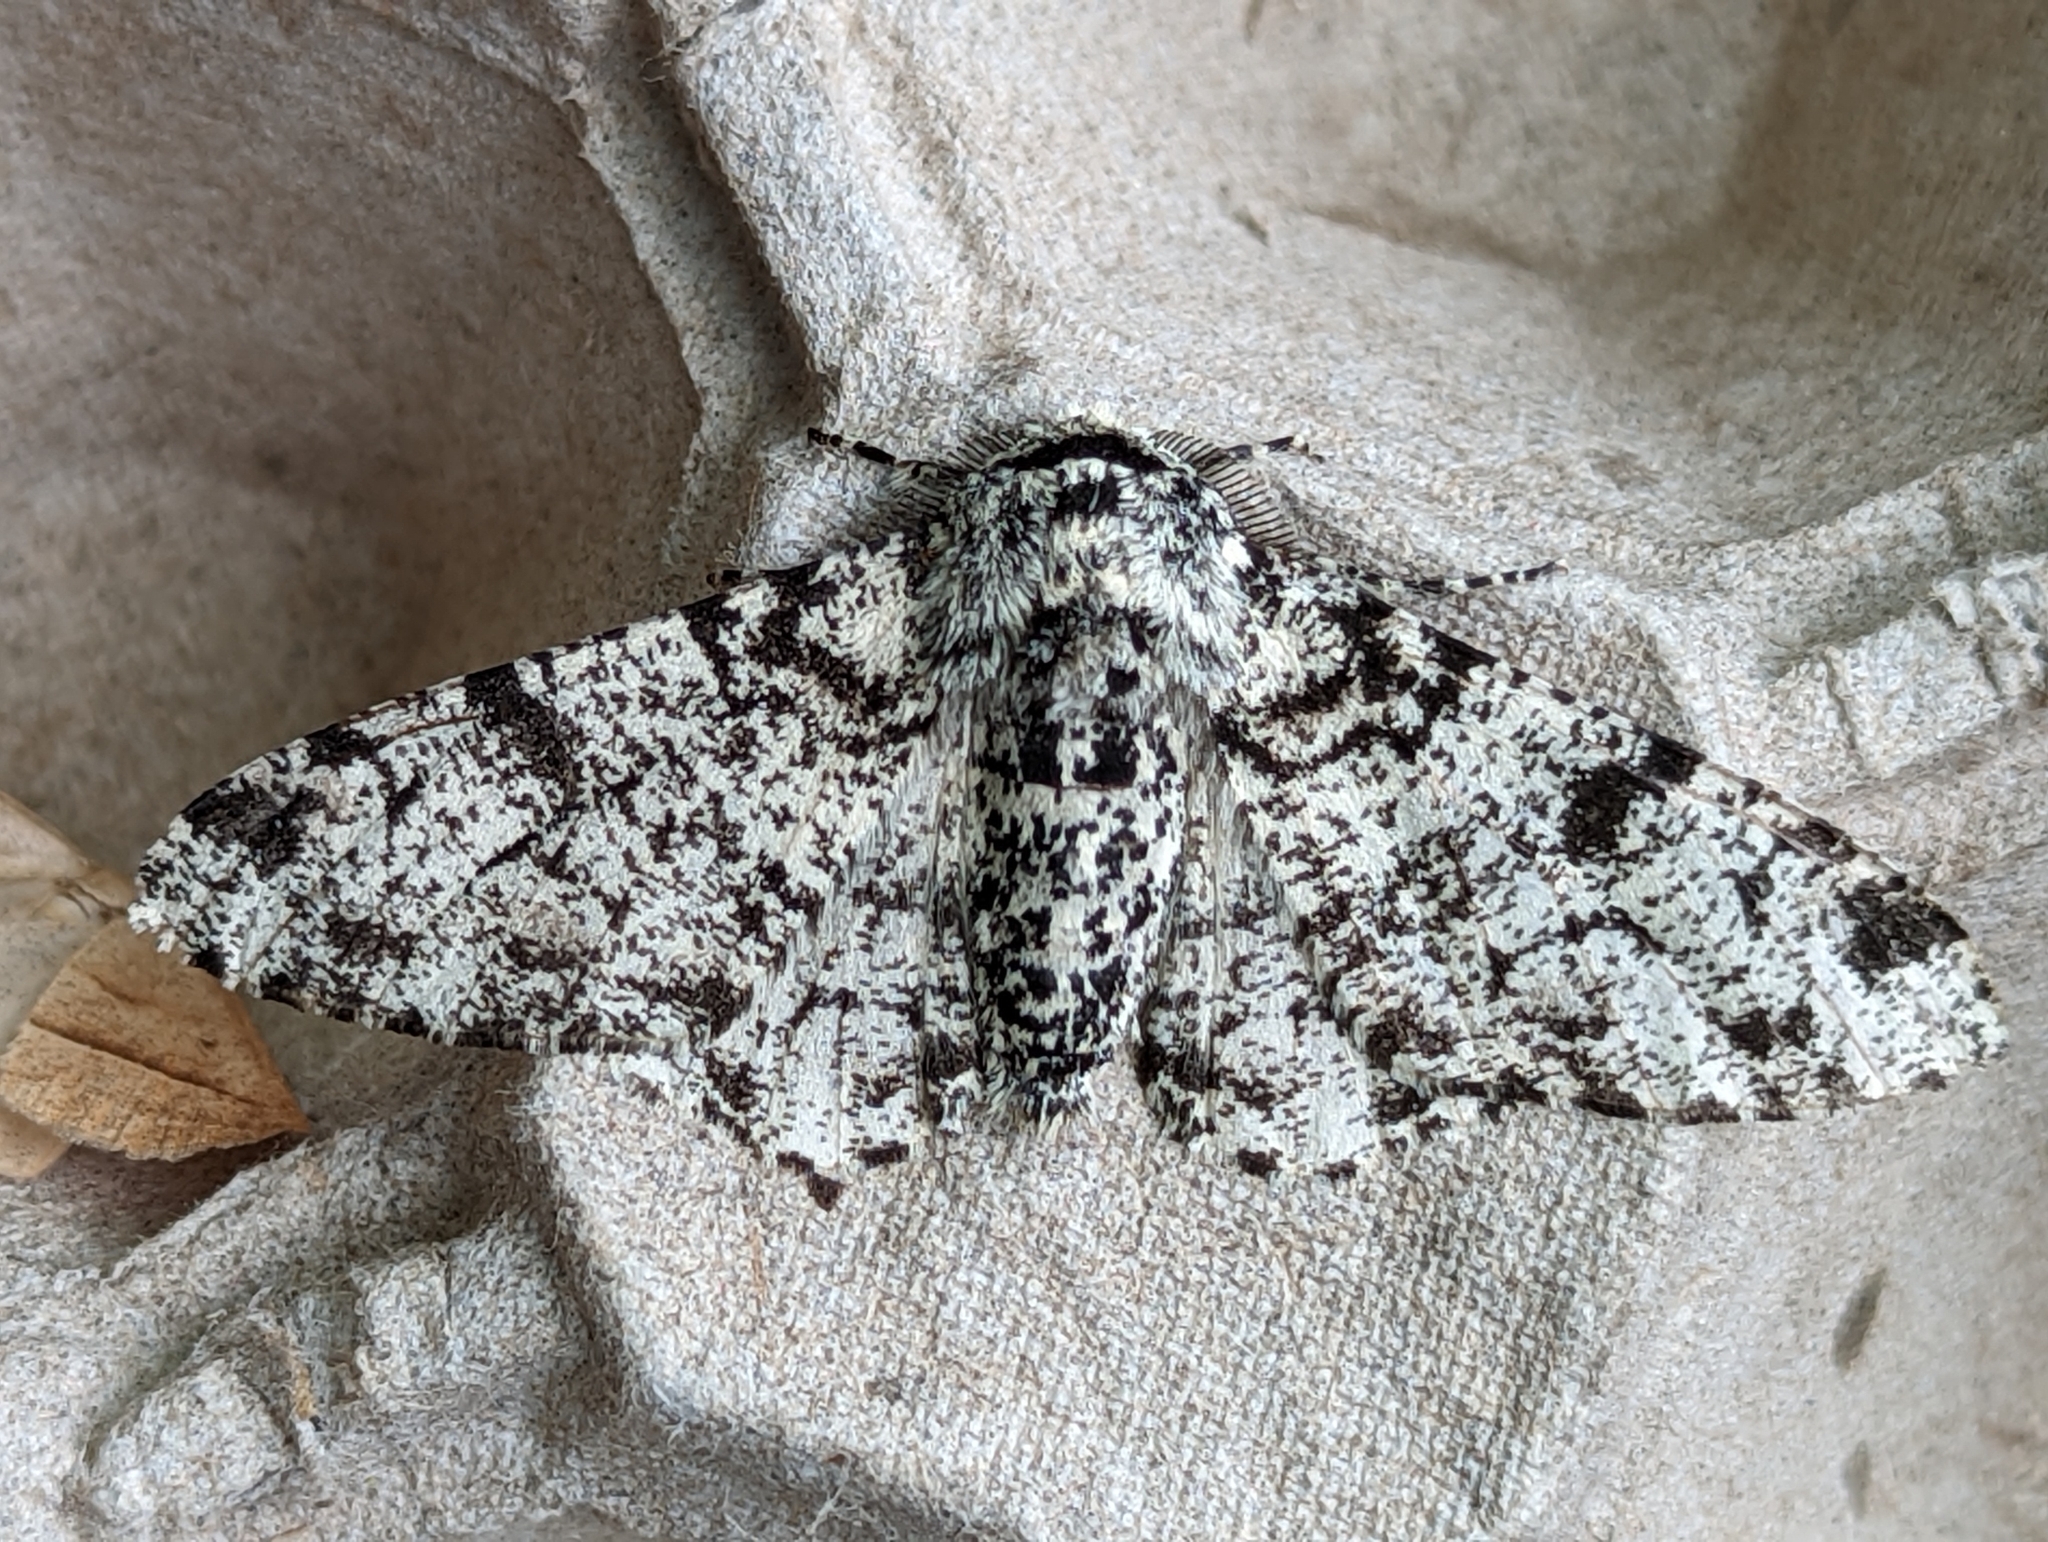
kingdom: Animalia
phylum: Arthropoda
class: Insecta
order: Lepidoptera
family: Geometridae
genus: Biston
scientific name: Biston betularia
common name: Peppered moth
